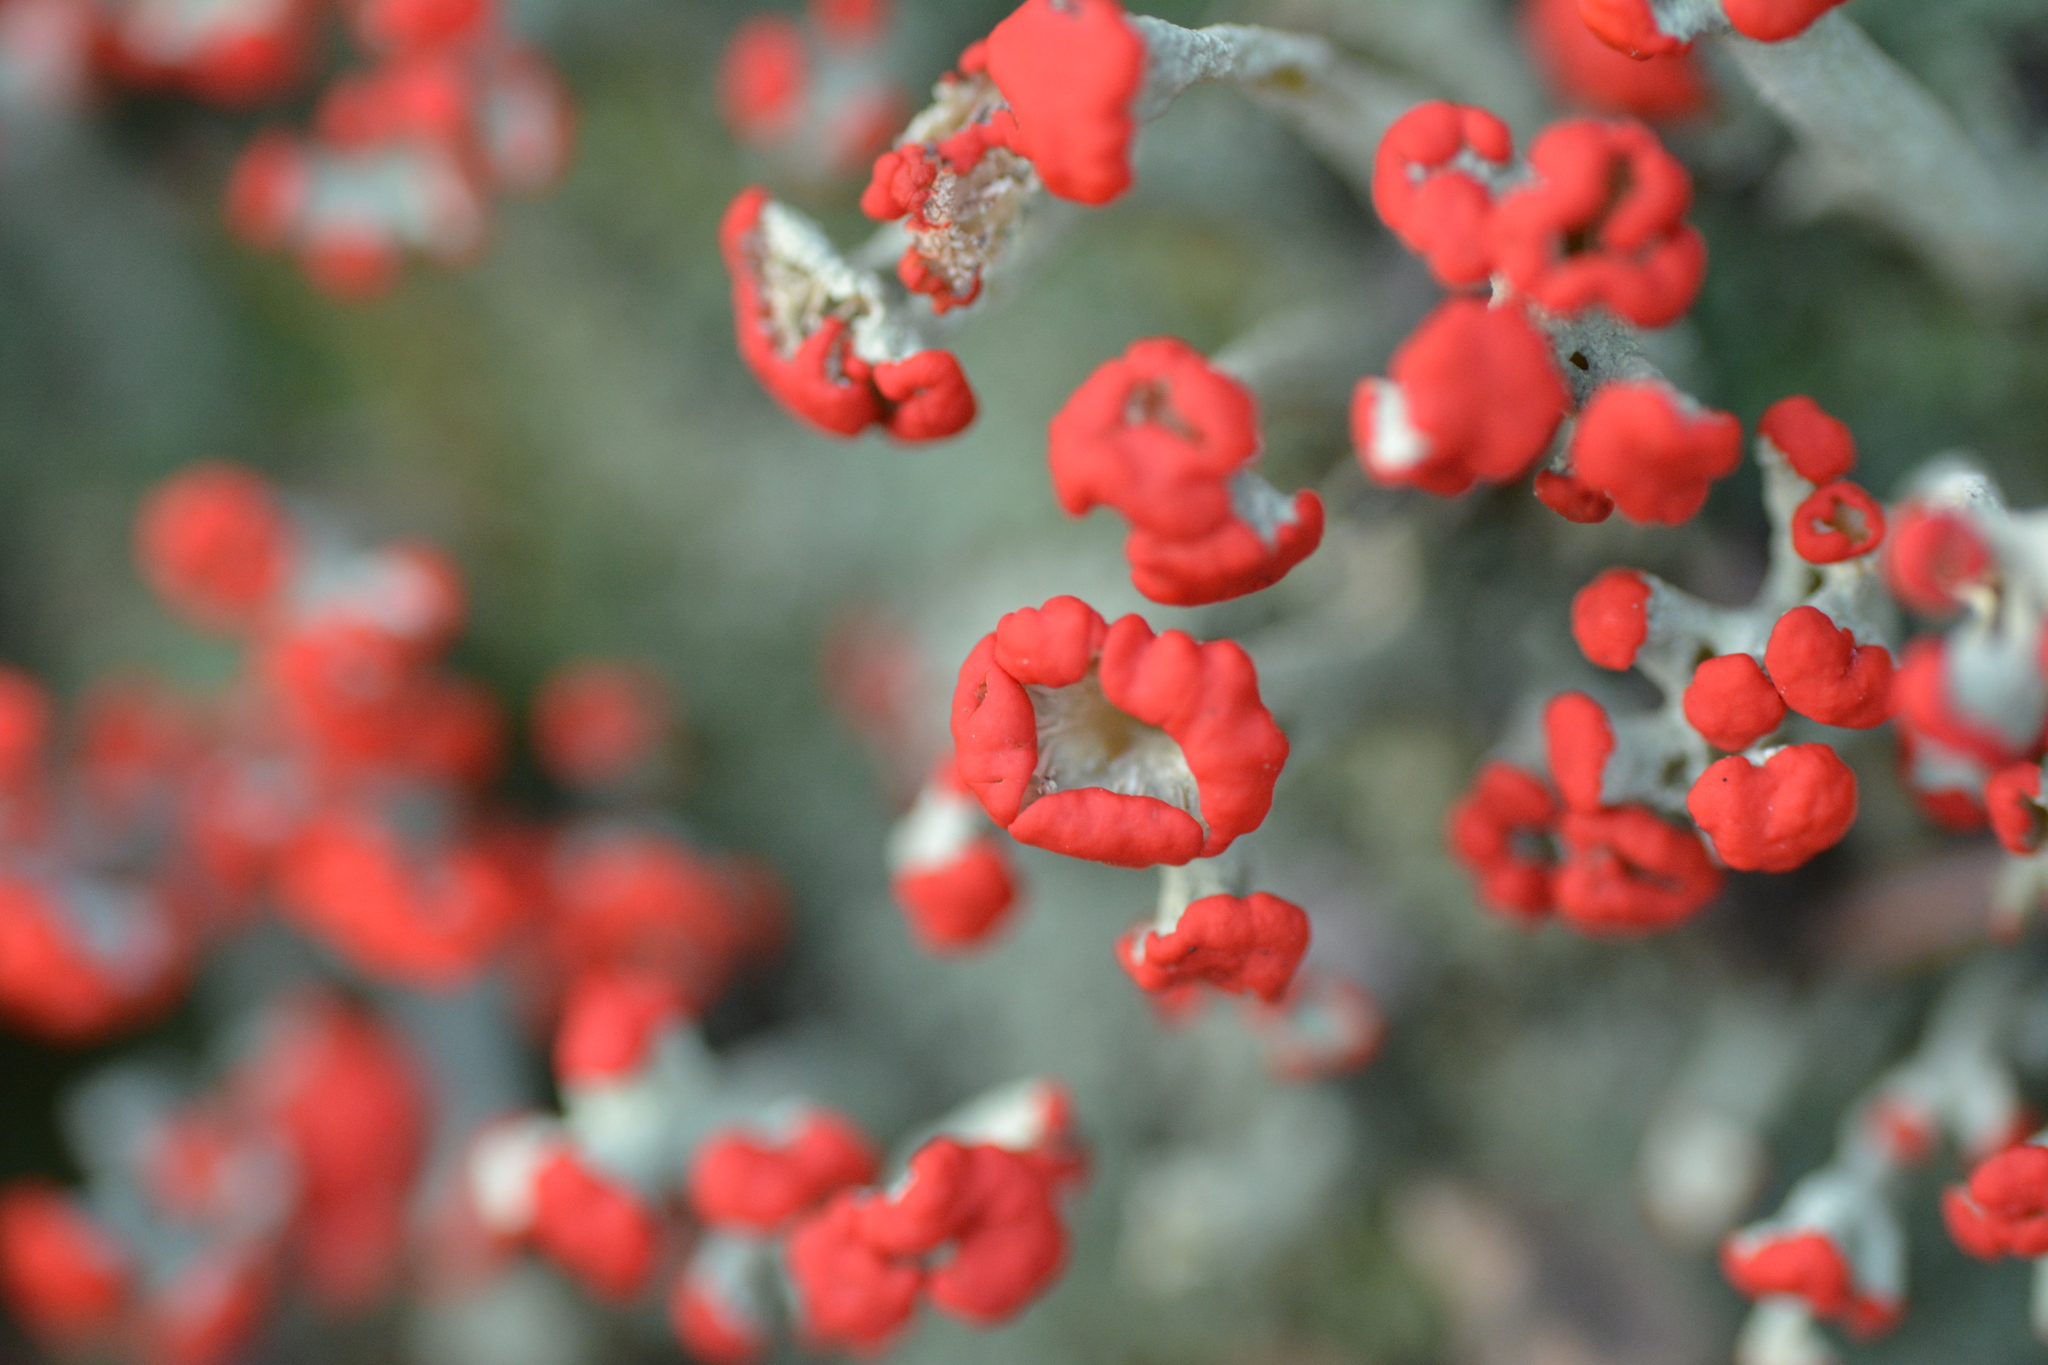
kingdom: Fungi
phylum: Ascomycota
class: Lecanoromycetes
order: Lecanorales
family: Cladoniaceae
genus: Cladonia
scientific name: Cladonia cristatella
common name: British soldier lichen
